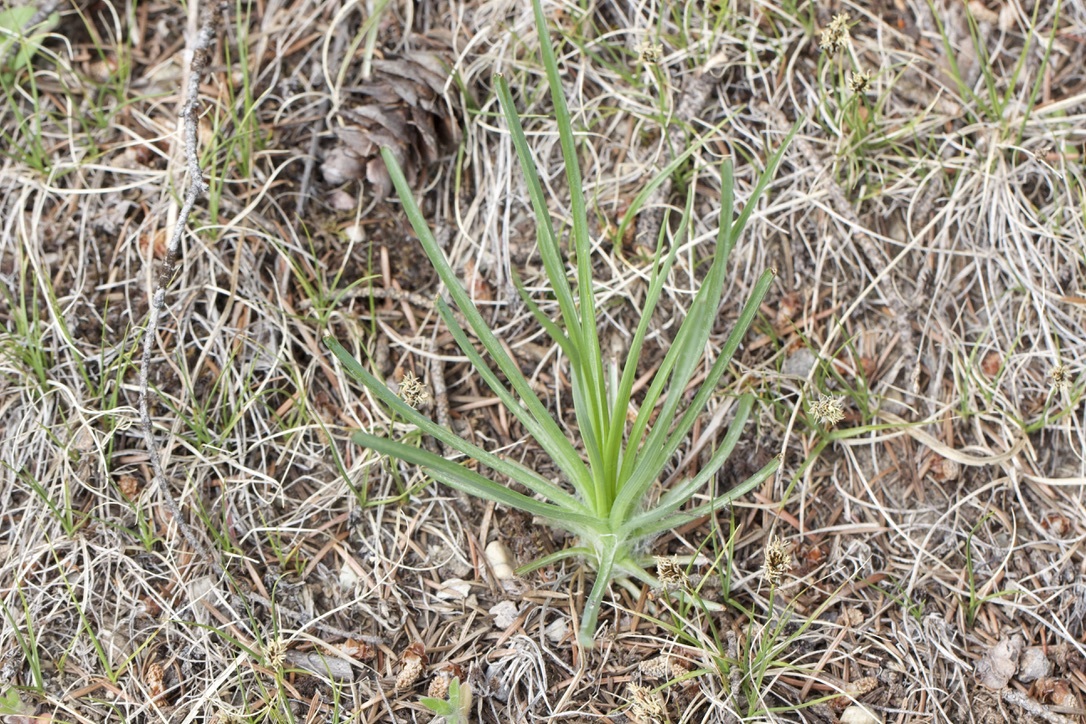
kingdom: Plantae
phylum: Tracheophyta
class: Magnoliopsida
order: Asterales
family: Asteraceae
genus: Tragopogon
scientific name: Tragopogon dubius
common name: Yellow salsify
